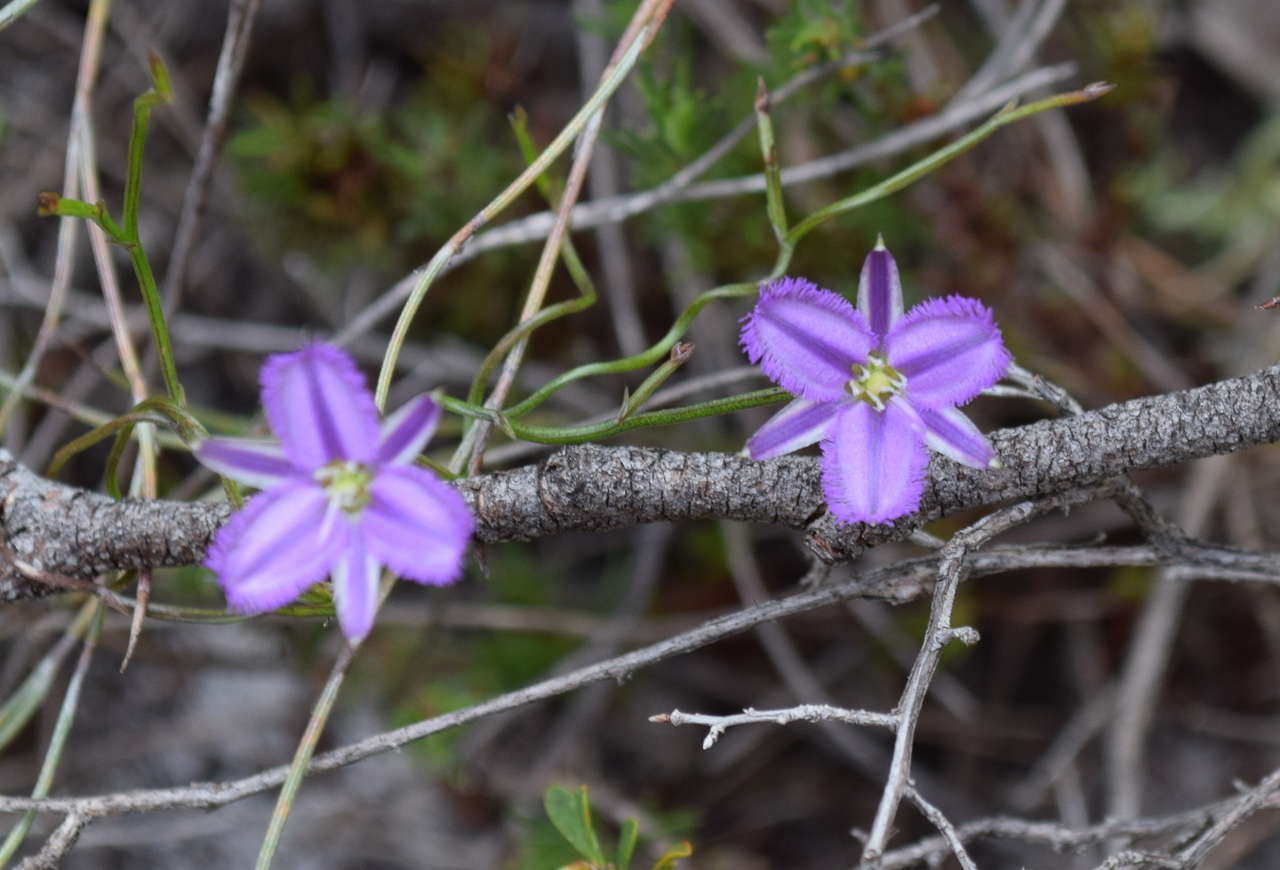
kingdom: Plantae
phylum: Tracheophyta
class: Liliopsida
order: Asparagales
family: Asparagaceae
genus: Thysanotus
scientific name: Thysanotus patersonii
